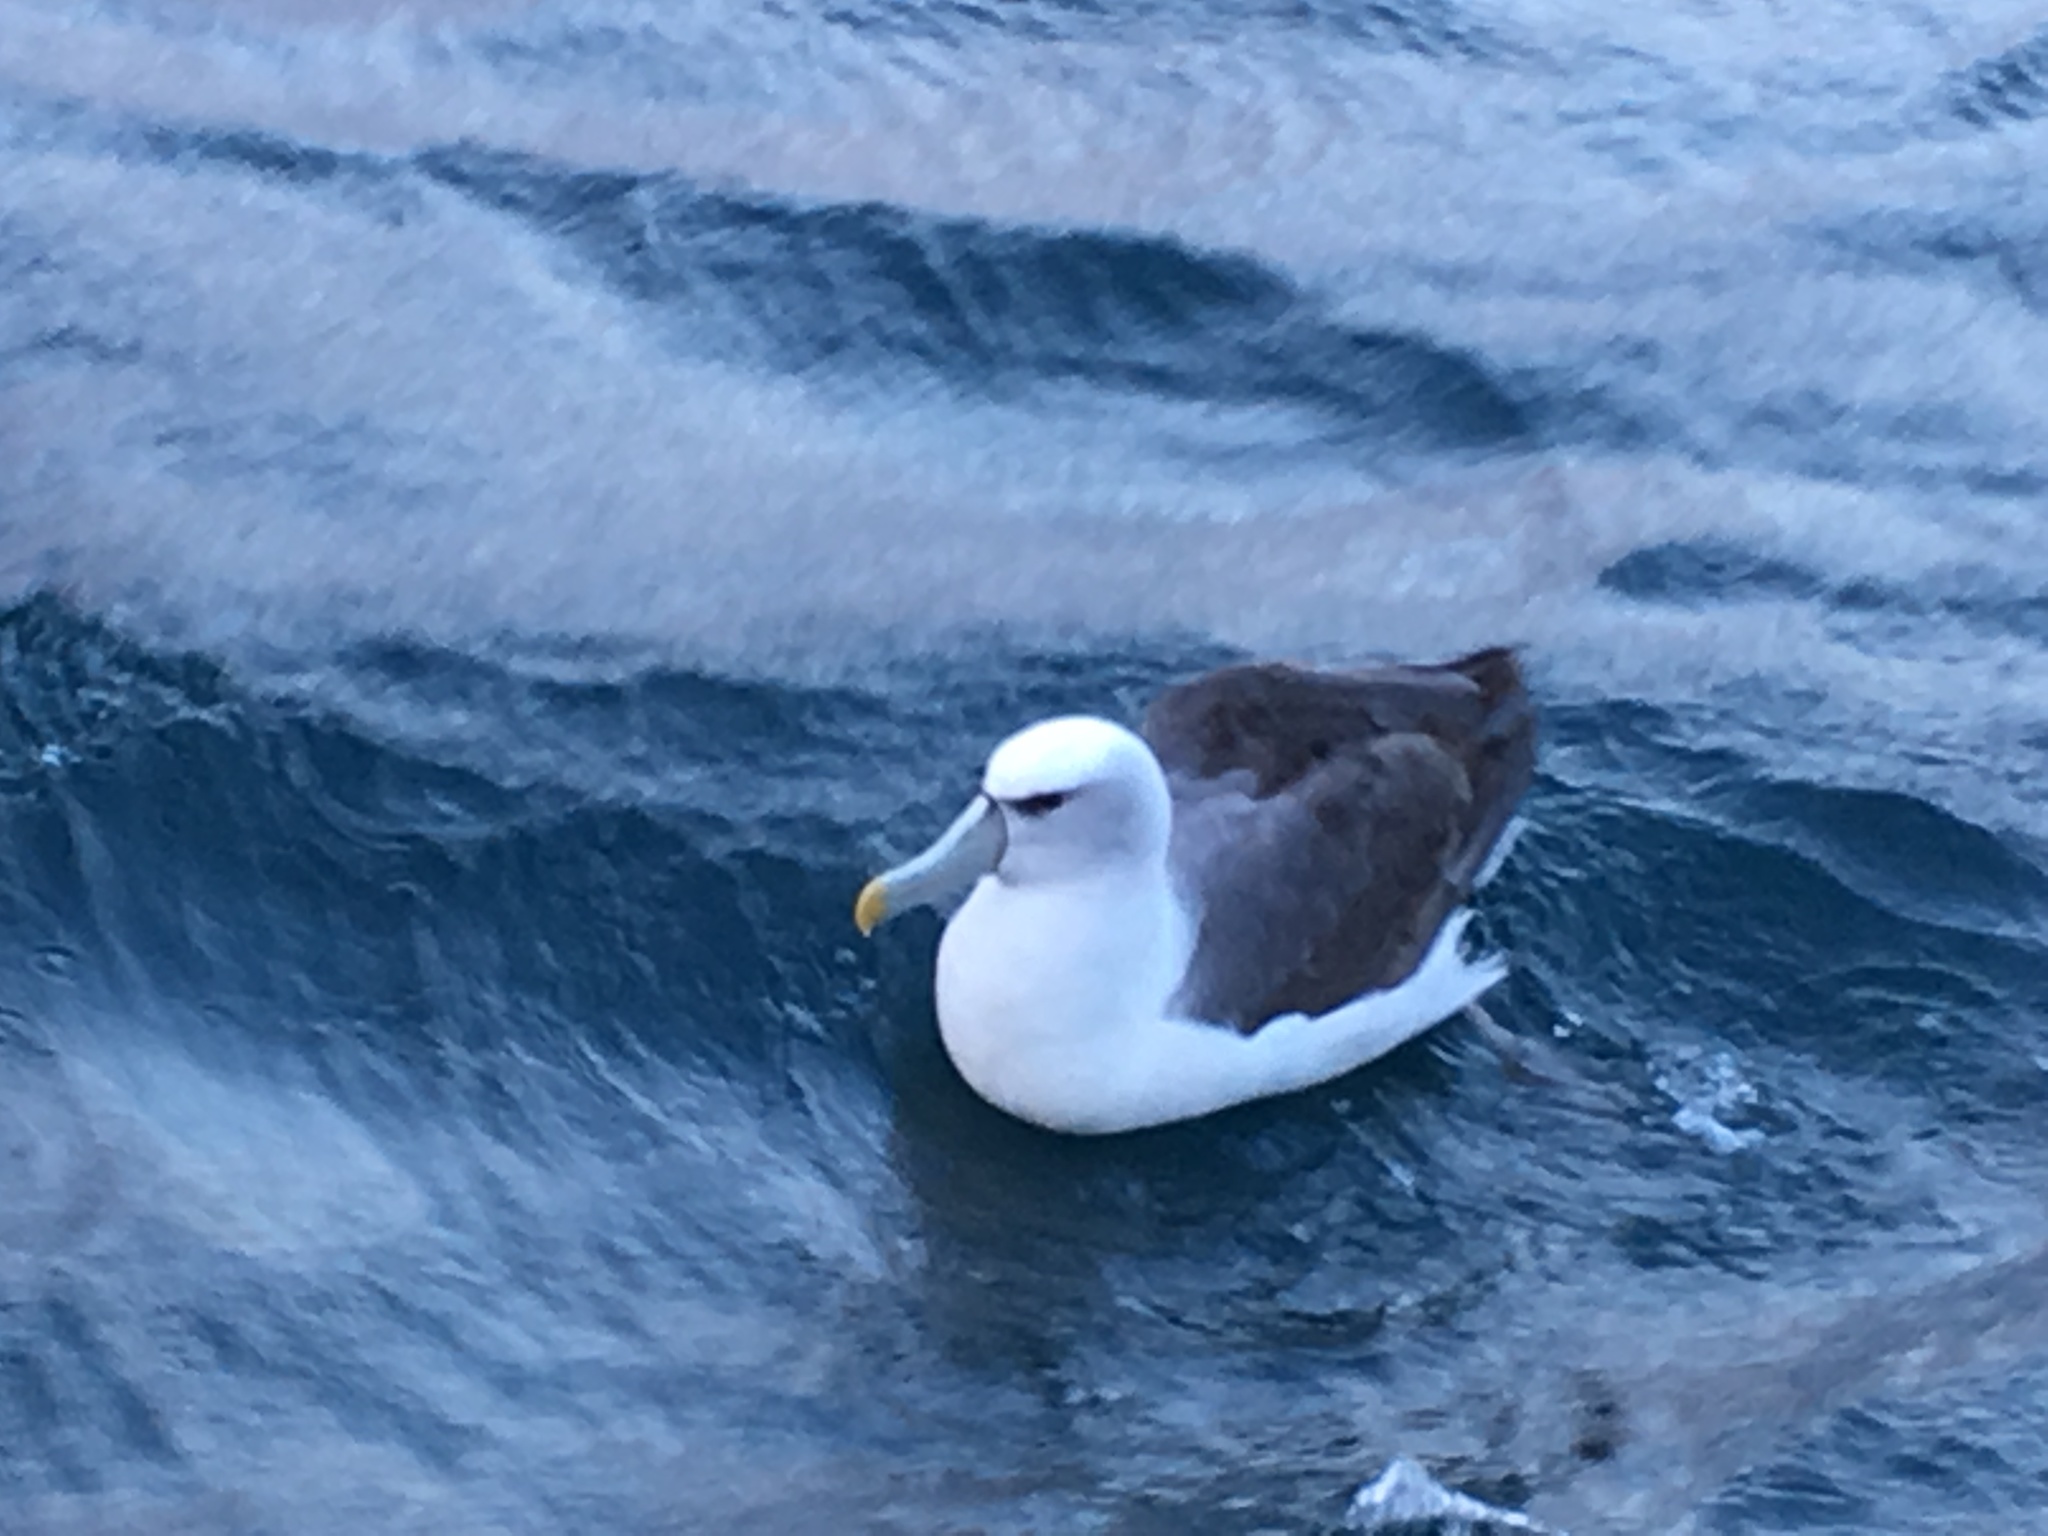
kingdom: Animalia
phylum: Chordata
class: Aves
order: Procellariiformes
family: Diomedeidae
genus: Thalassarche
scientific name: Thalassarche cauta
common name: Shy albatross
